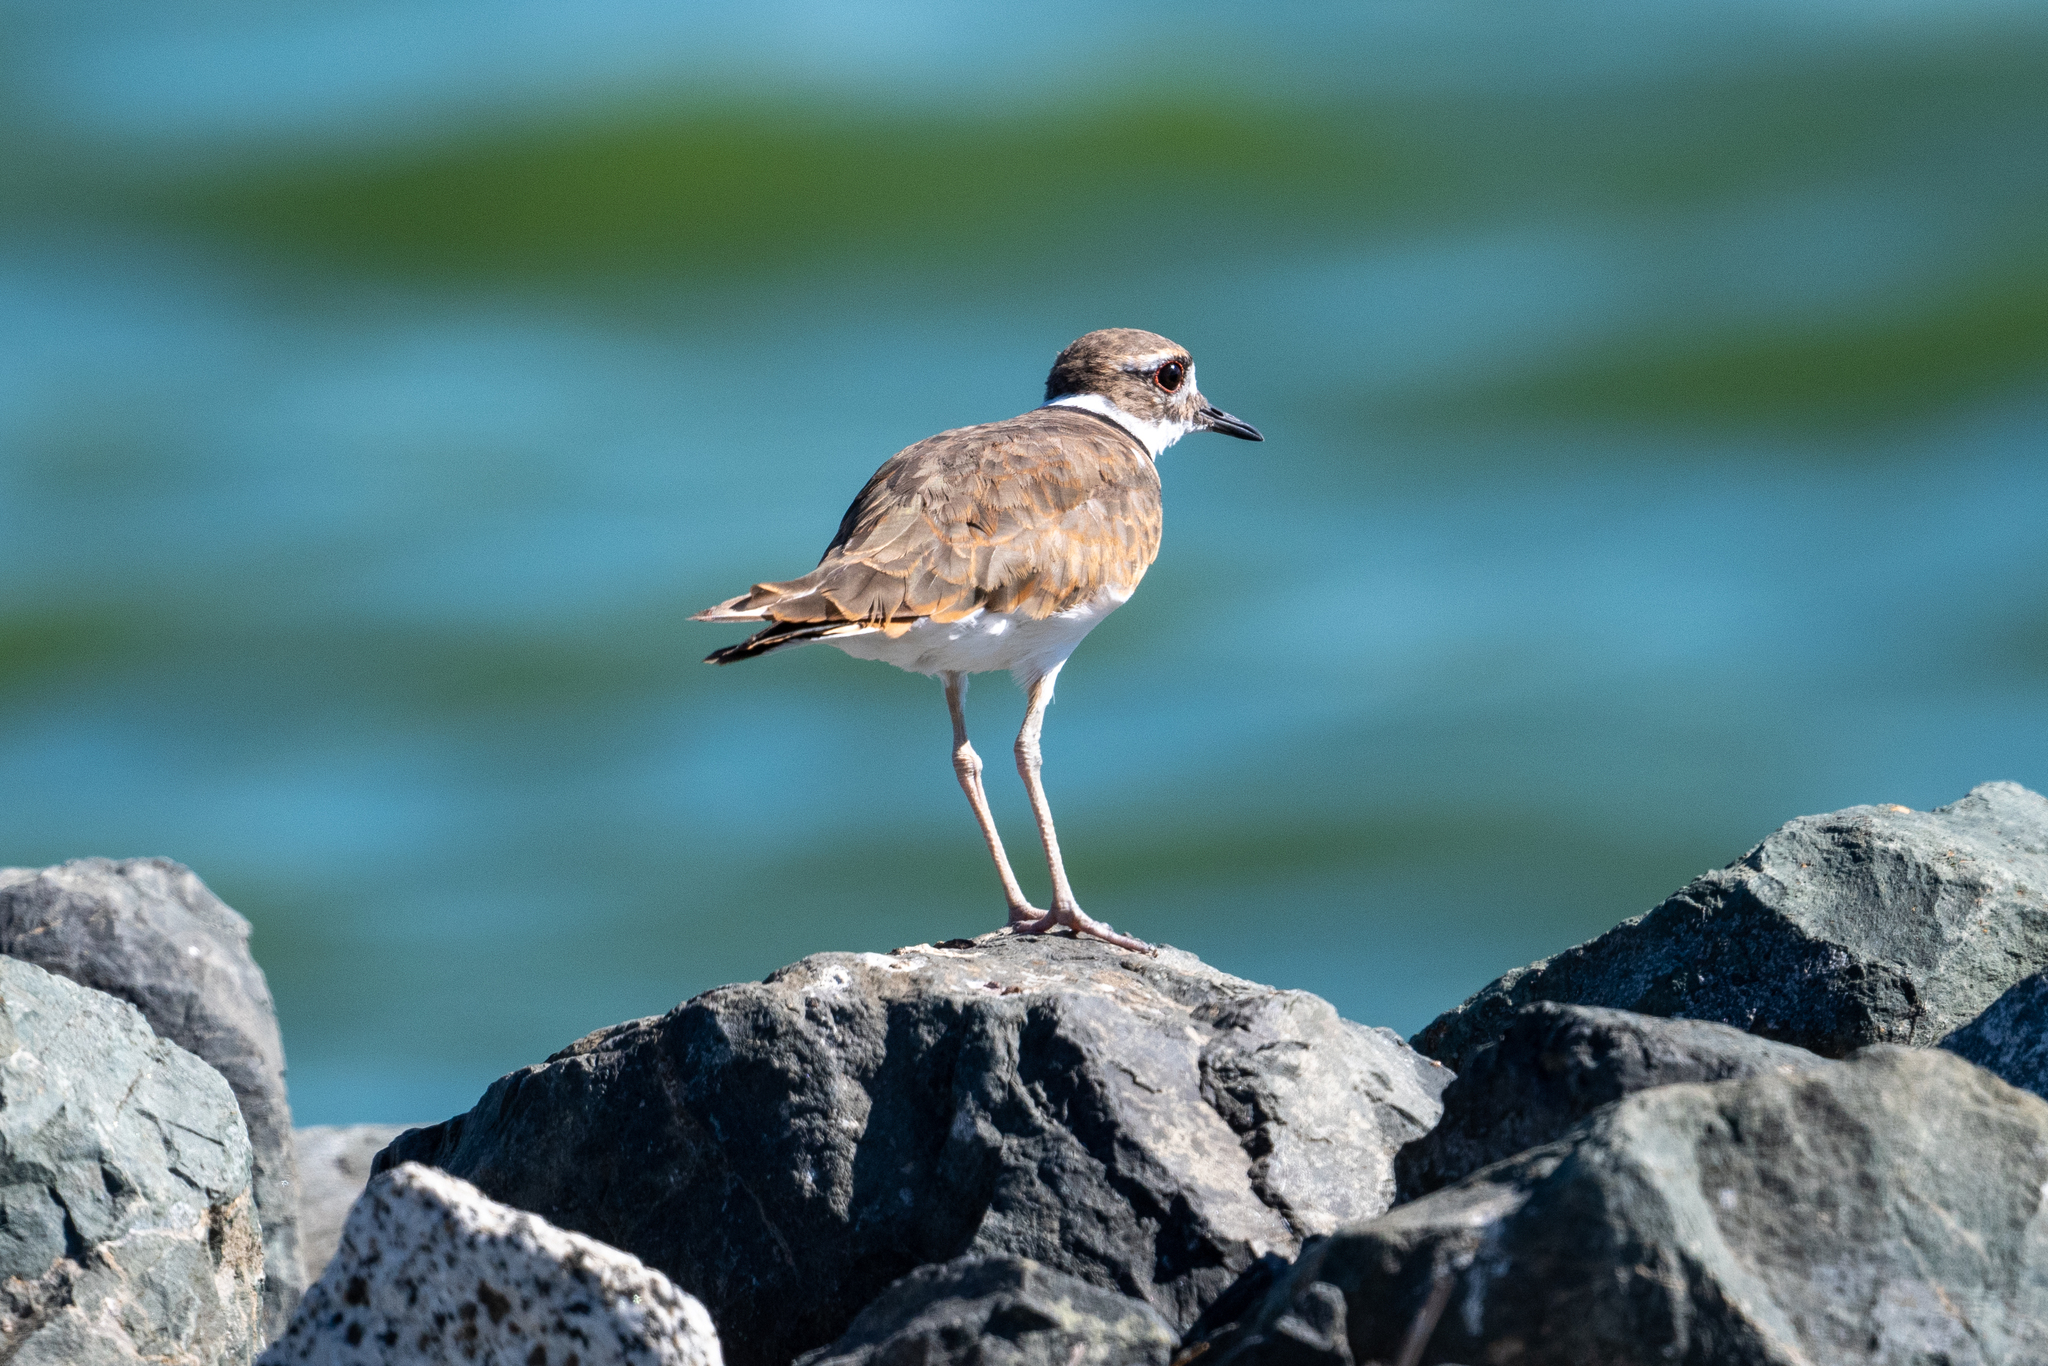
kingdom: Animalia
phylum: Chordata
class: Aves
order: Charadriiformes
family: Charadriidae
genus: Charadrius
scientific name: Charadrius vociferus
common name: Killdeer
